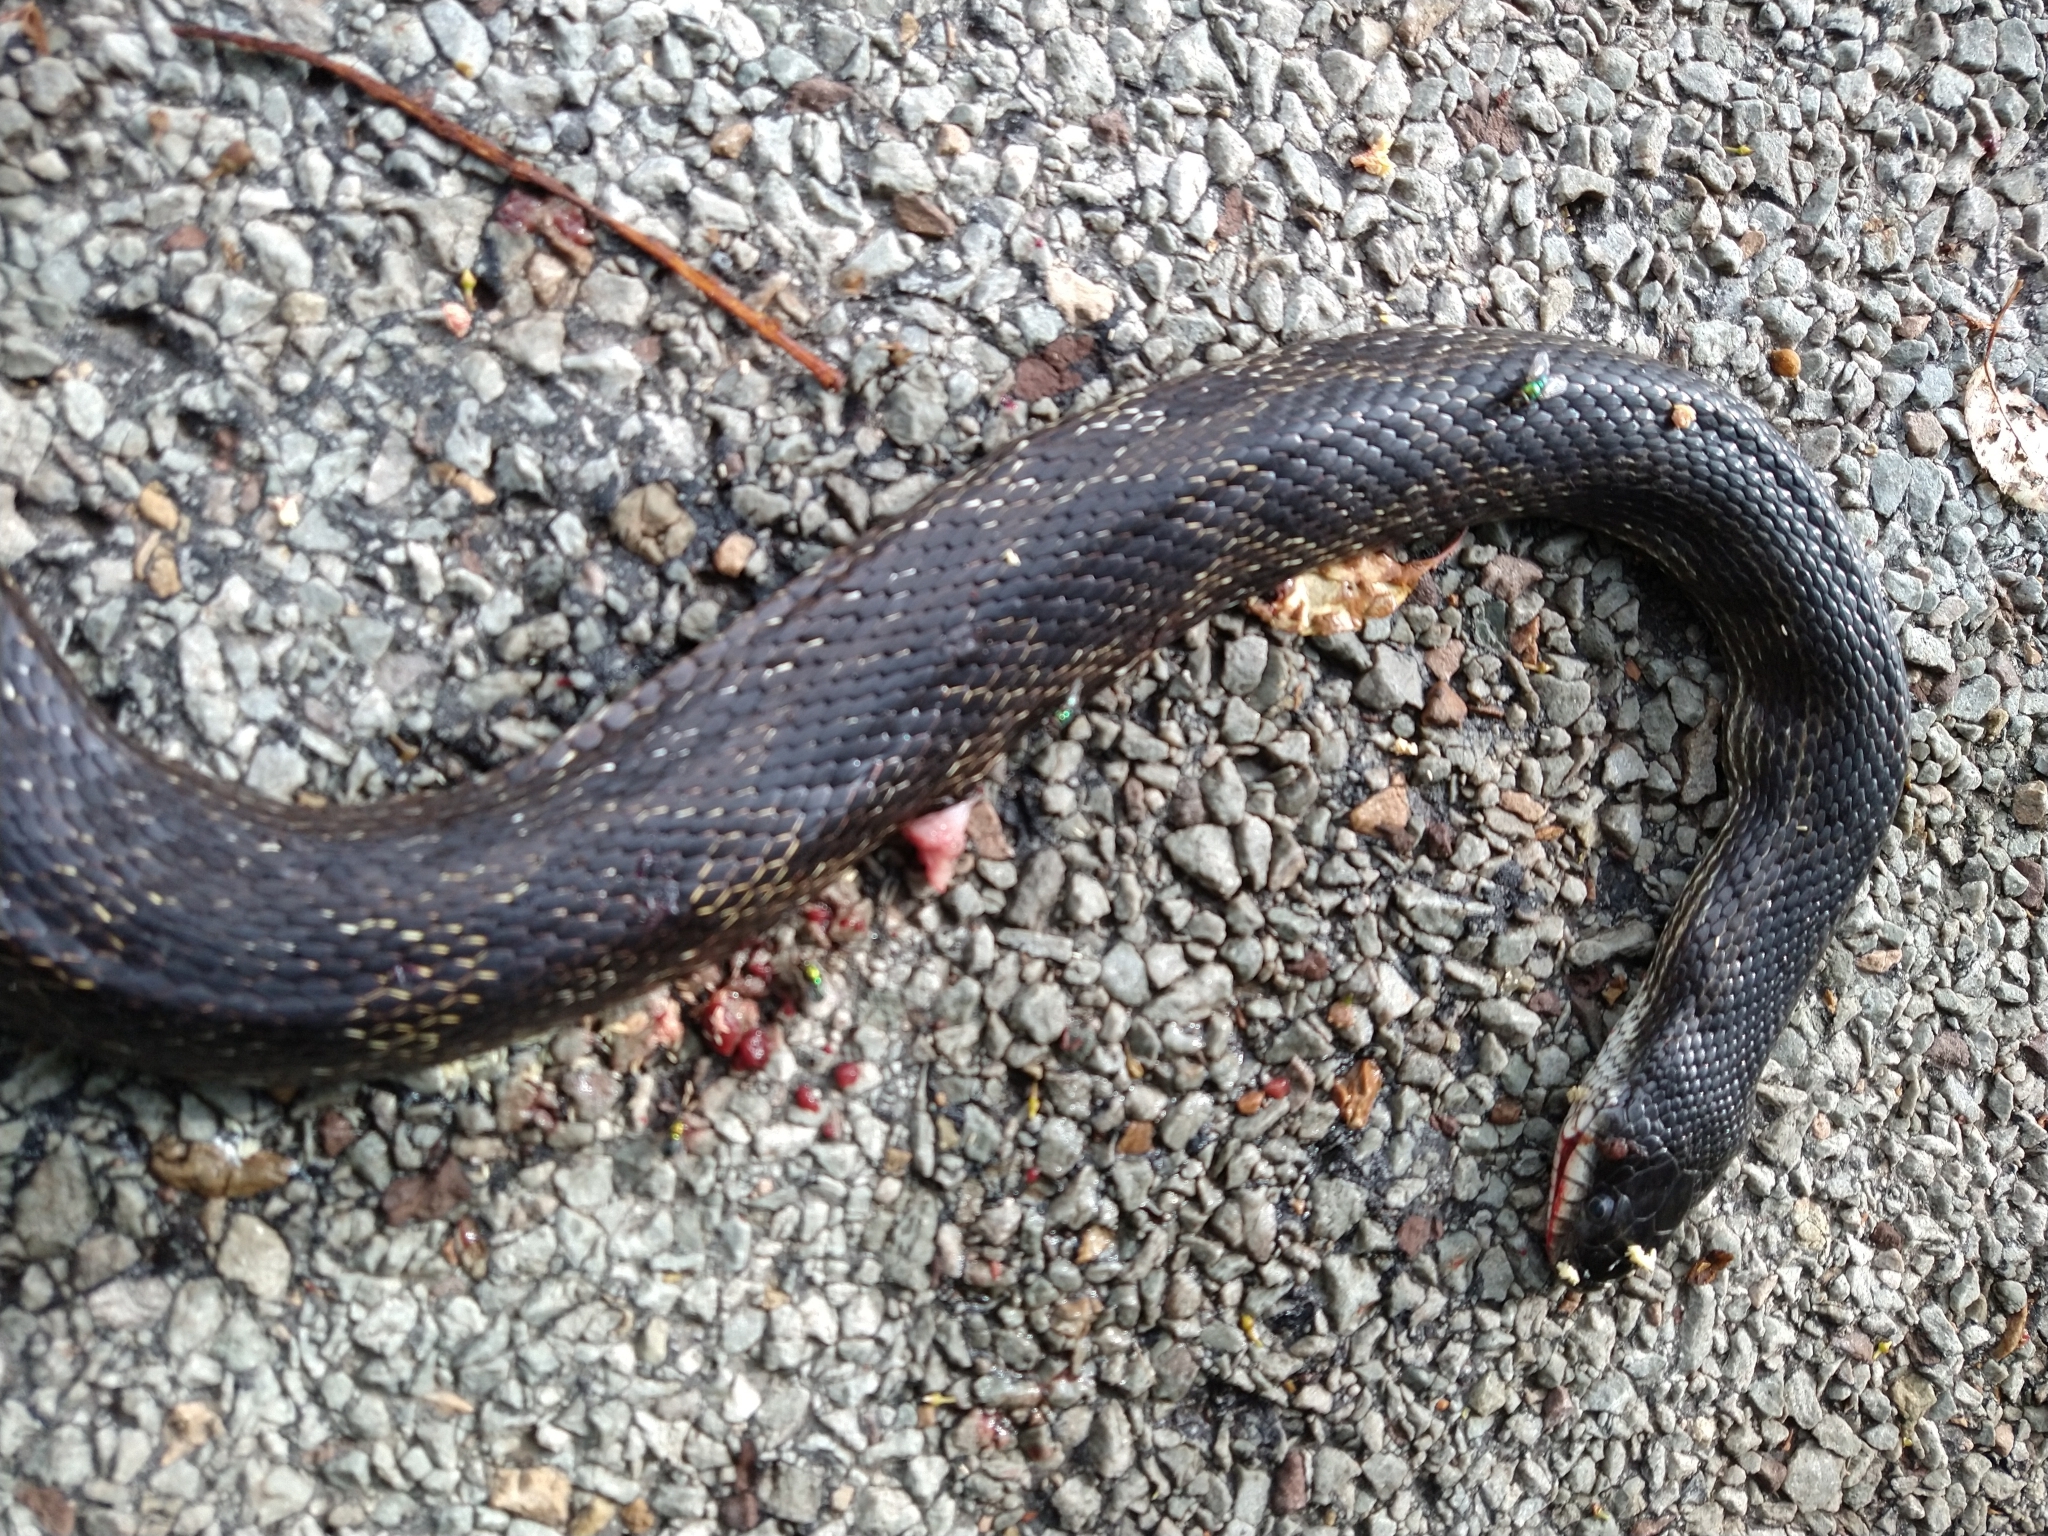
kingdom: Animalia
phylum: Chordata
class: Squamata
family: Colubridae
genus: Pantherophis
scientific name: Pantherophis spiloides
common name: Gray rat snake
